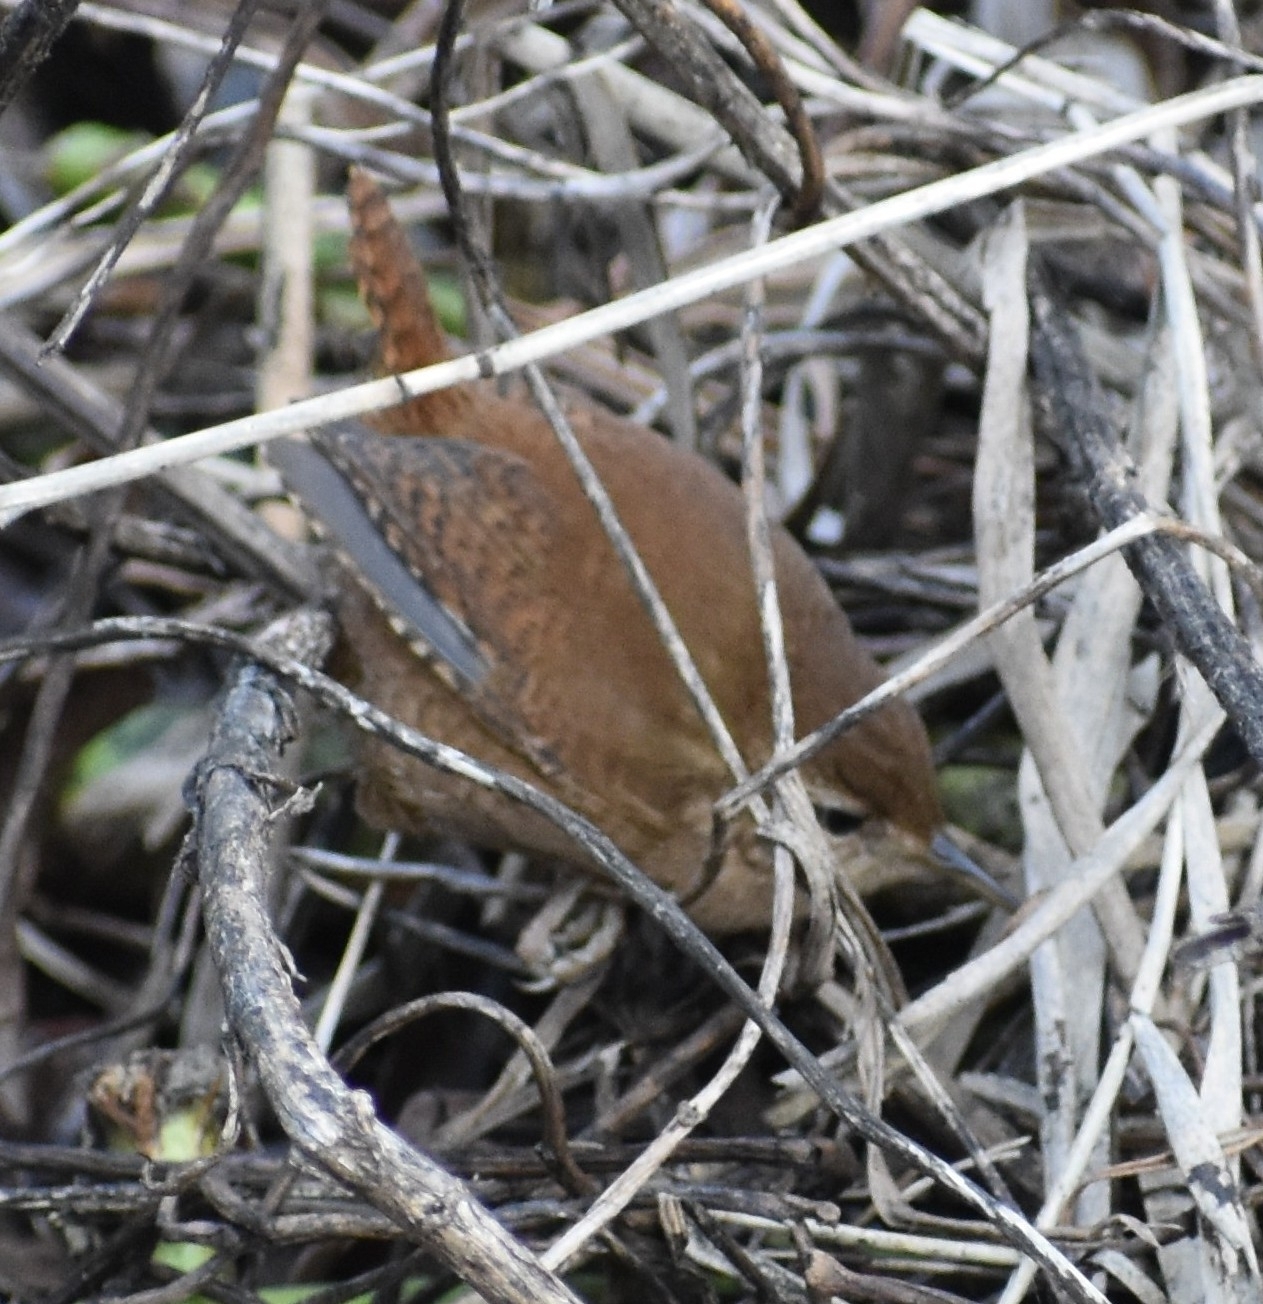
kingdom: Animalia
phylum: Chordata
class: Aves
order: Passeriformes
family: Troglodytidae
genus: Troglodytes
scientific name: Troglodytes troglodytes
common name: Eurasian wren
